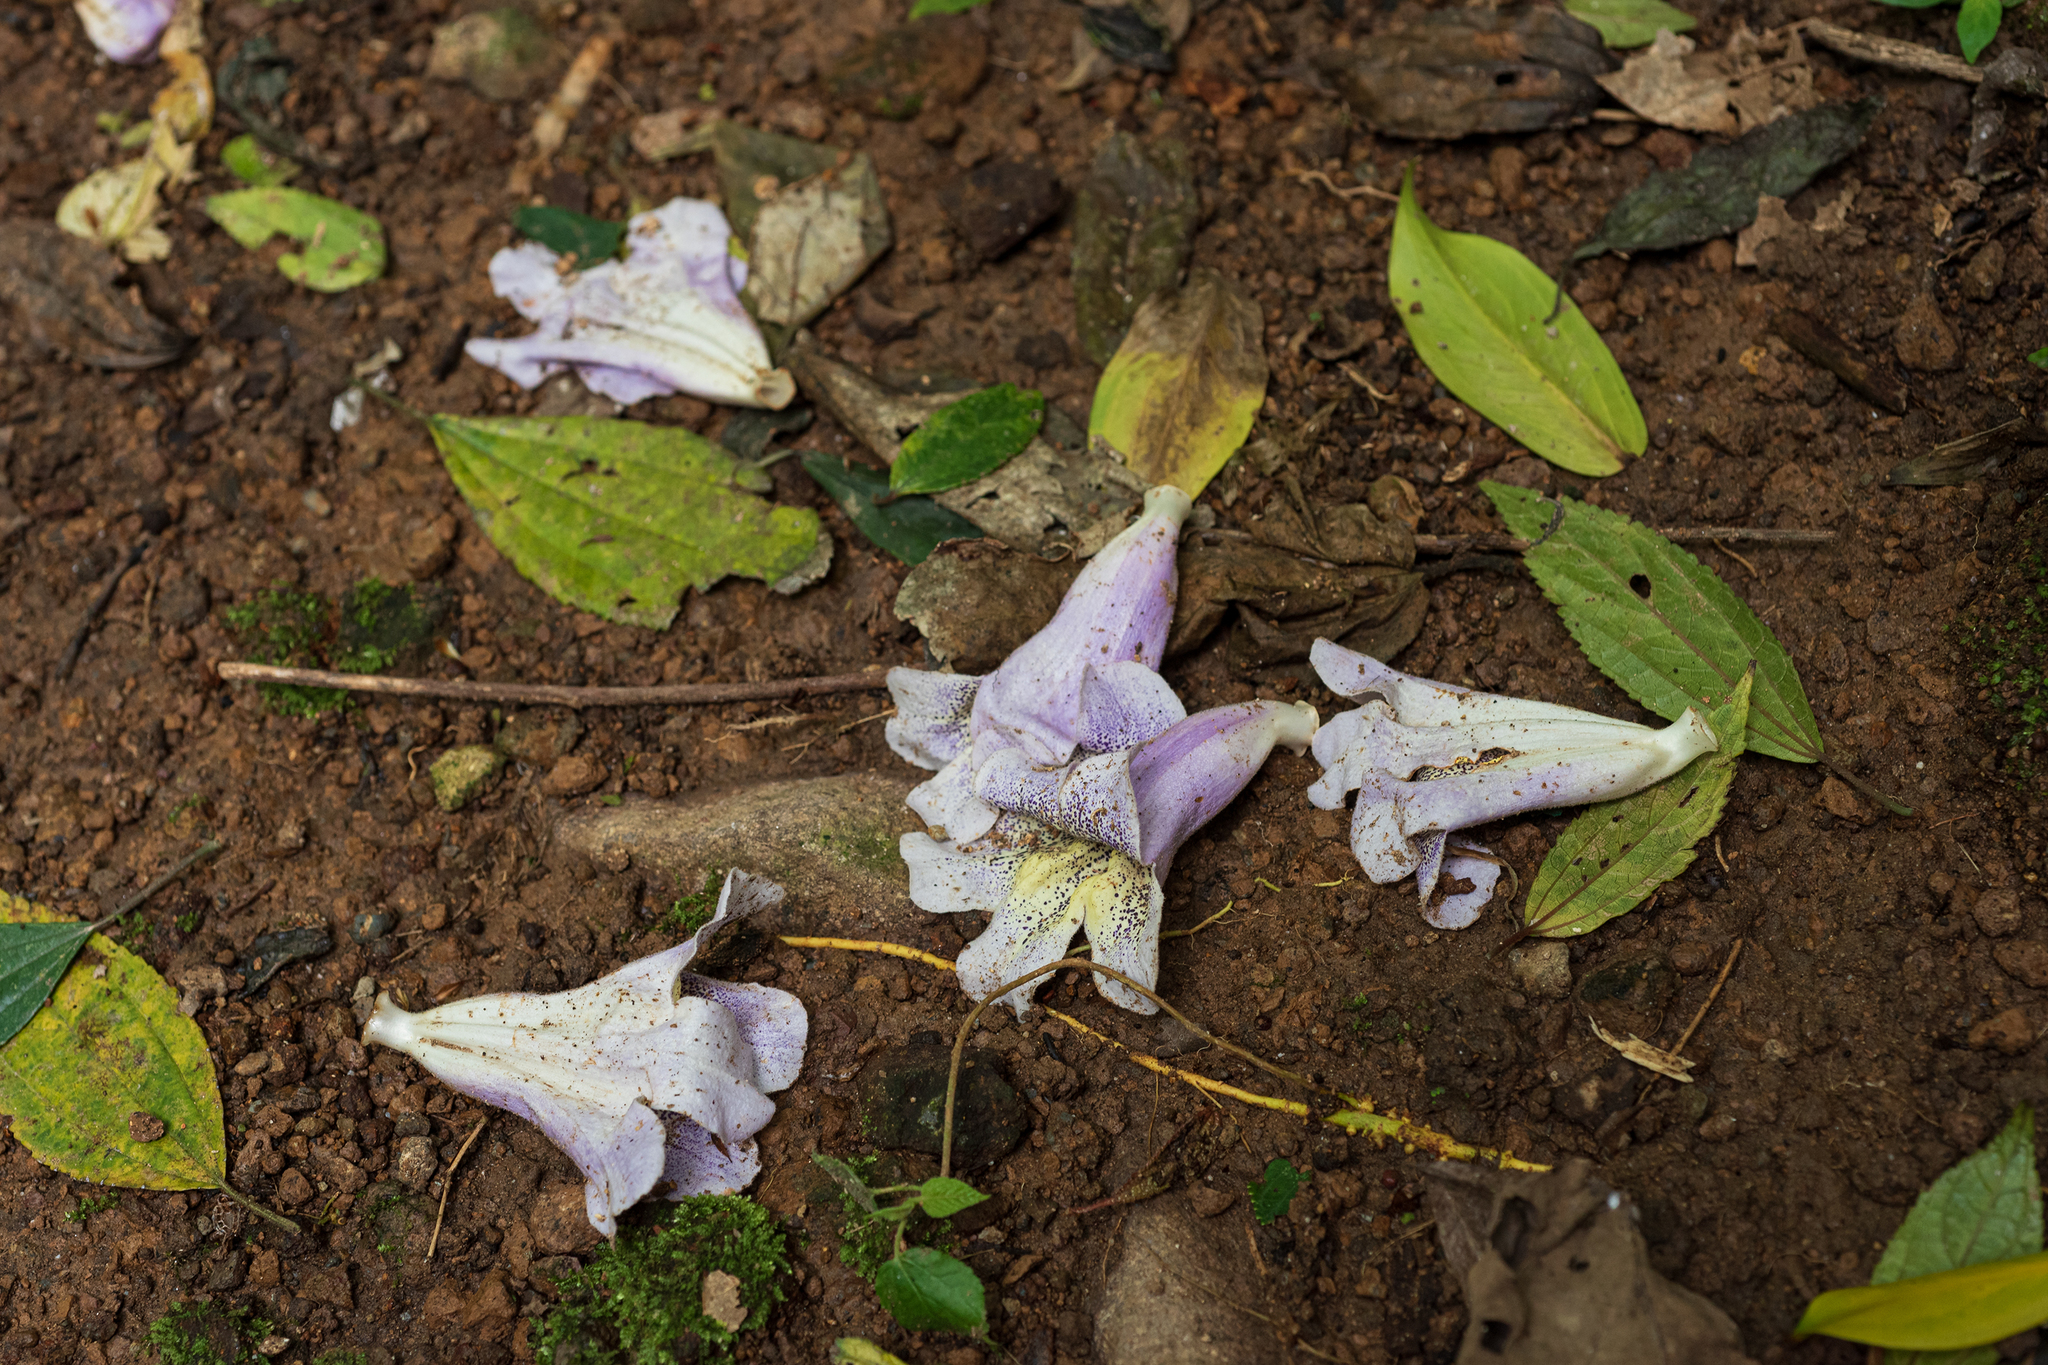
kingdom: Plantae
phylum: Tracheophyta
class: Magnoliopsida
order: Lamiales
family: Paulowniaceae
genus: Paulownia
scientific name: Paulownia taiwaniana
